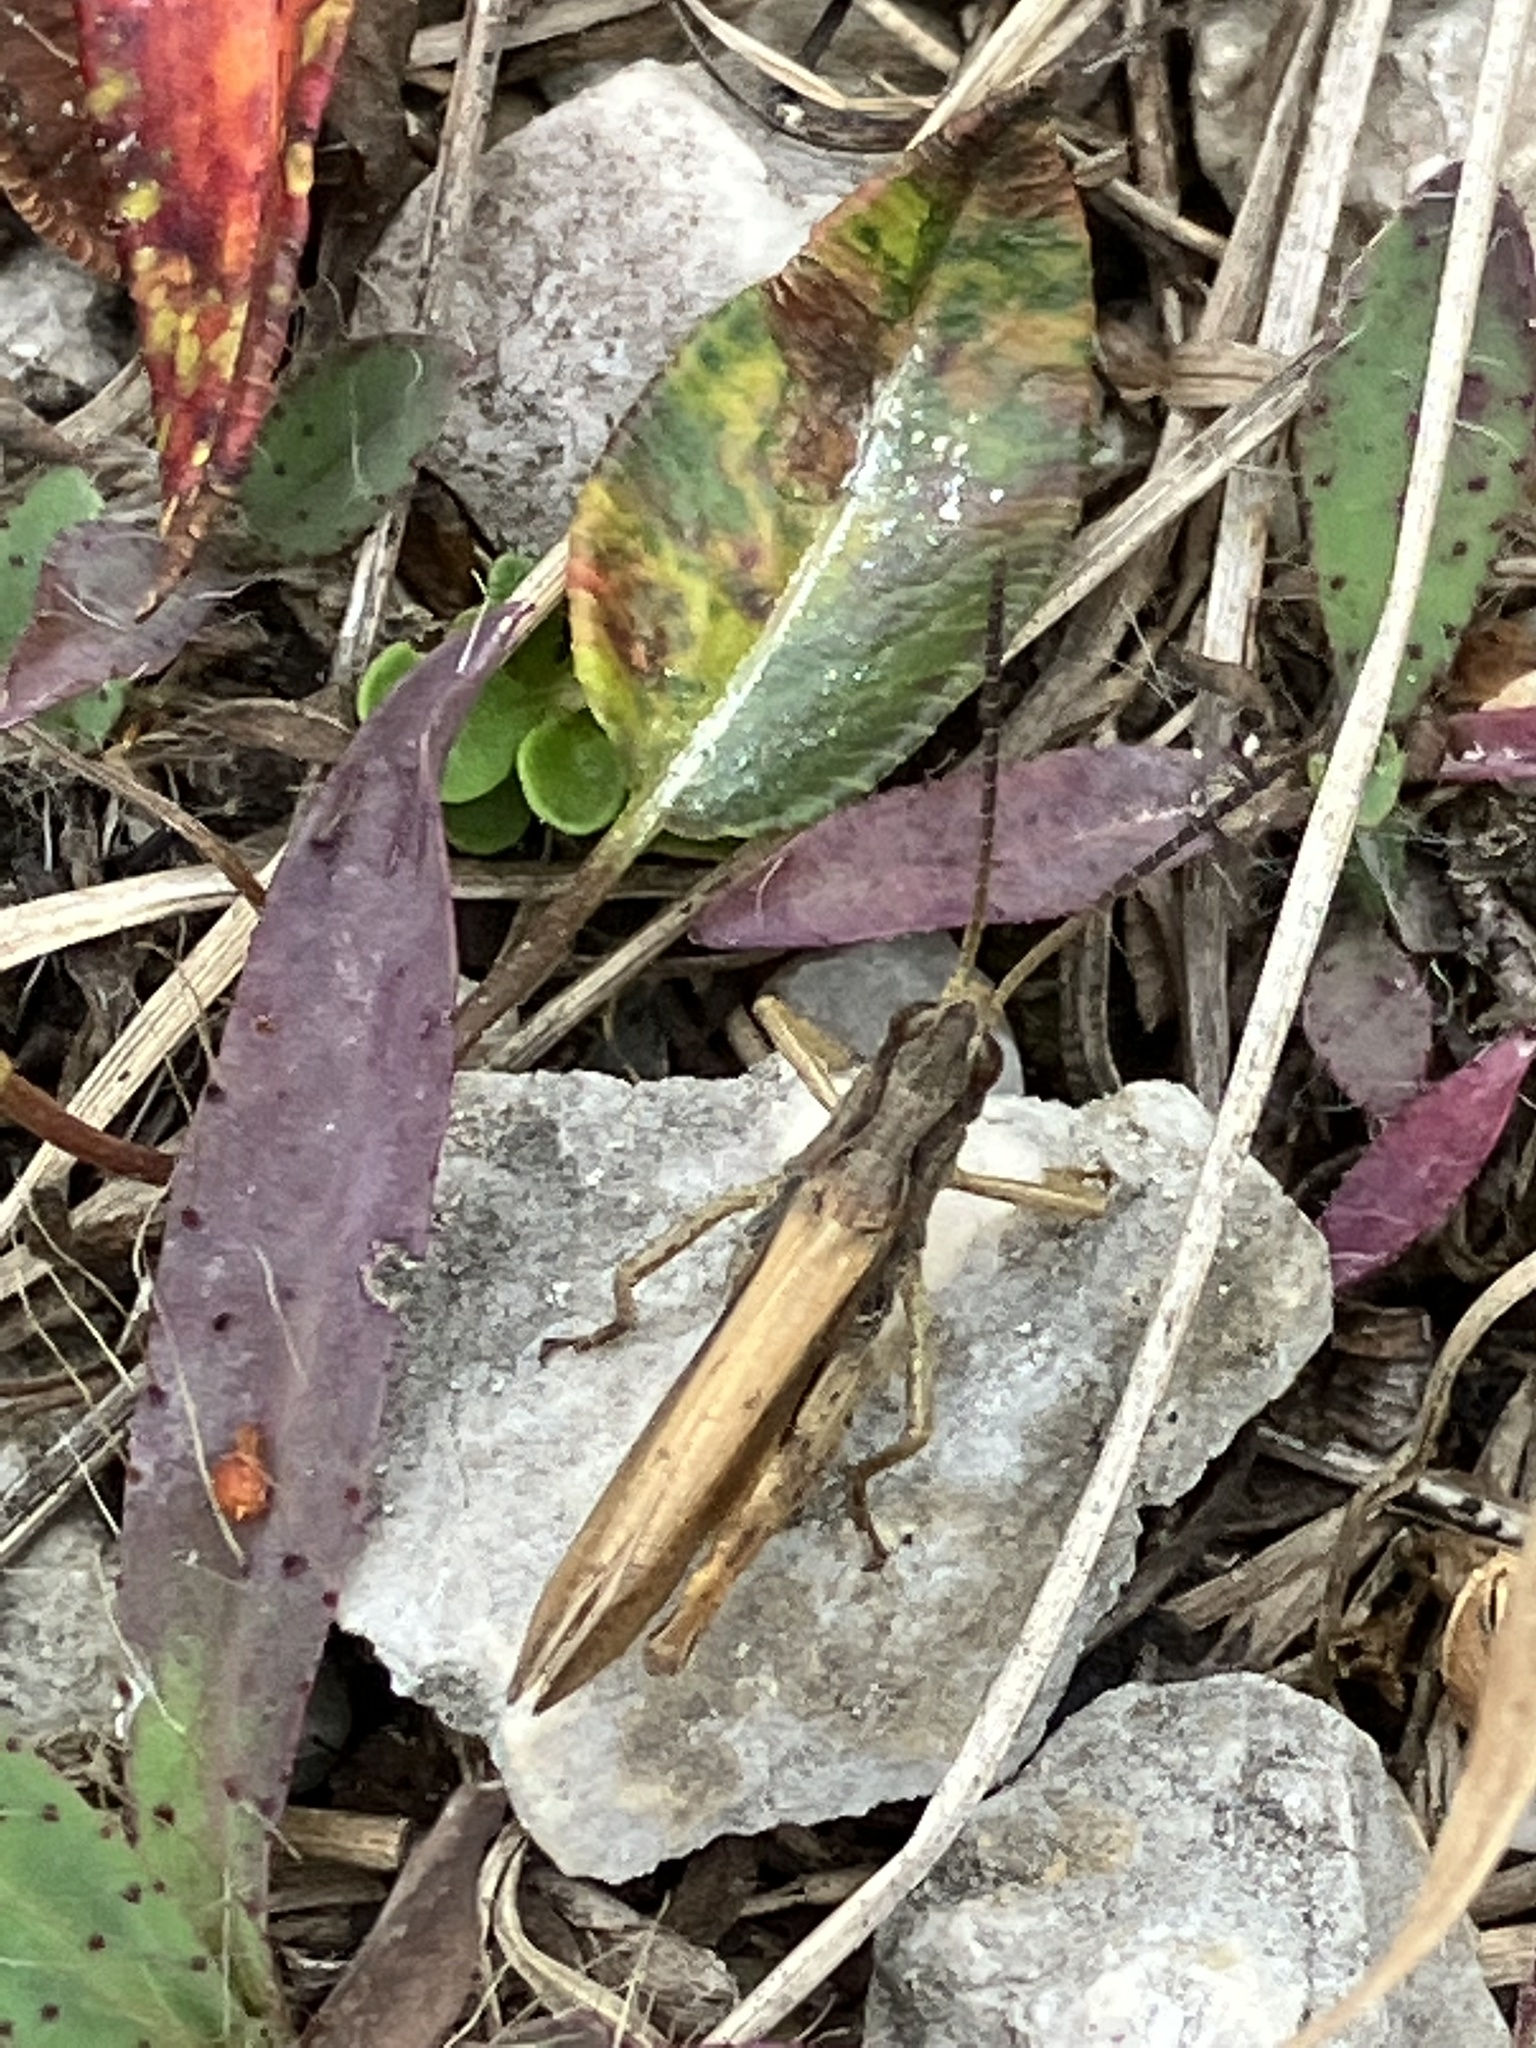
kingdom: Animalia
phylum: Arthropoda
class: Insecta
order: Orthoptera
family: Acrididae
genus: Chorthippus
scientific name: Chorthippus apricarius
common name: Upland field grasshopper
